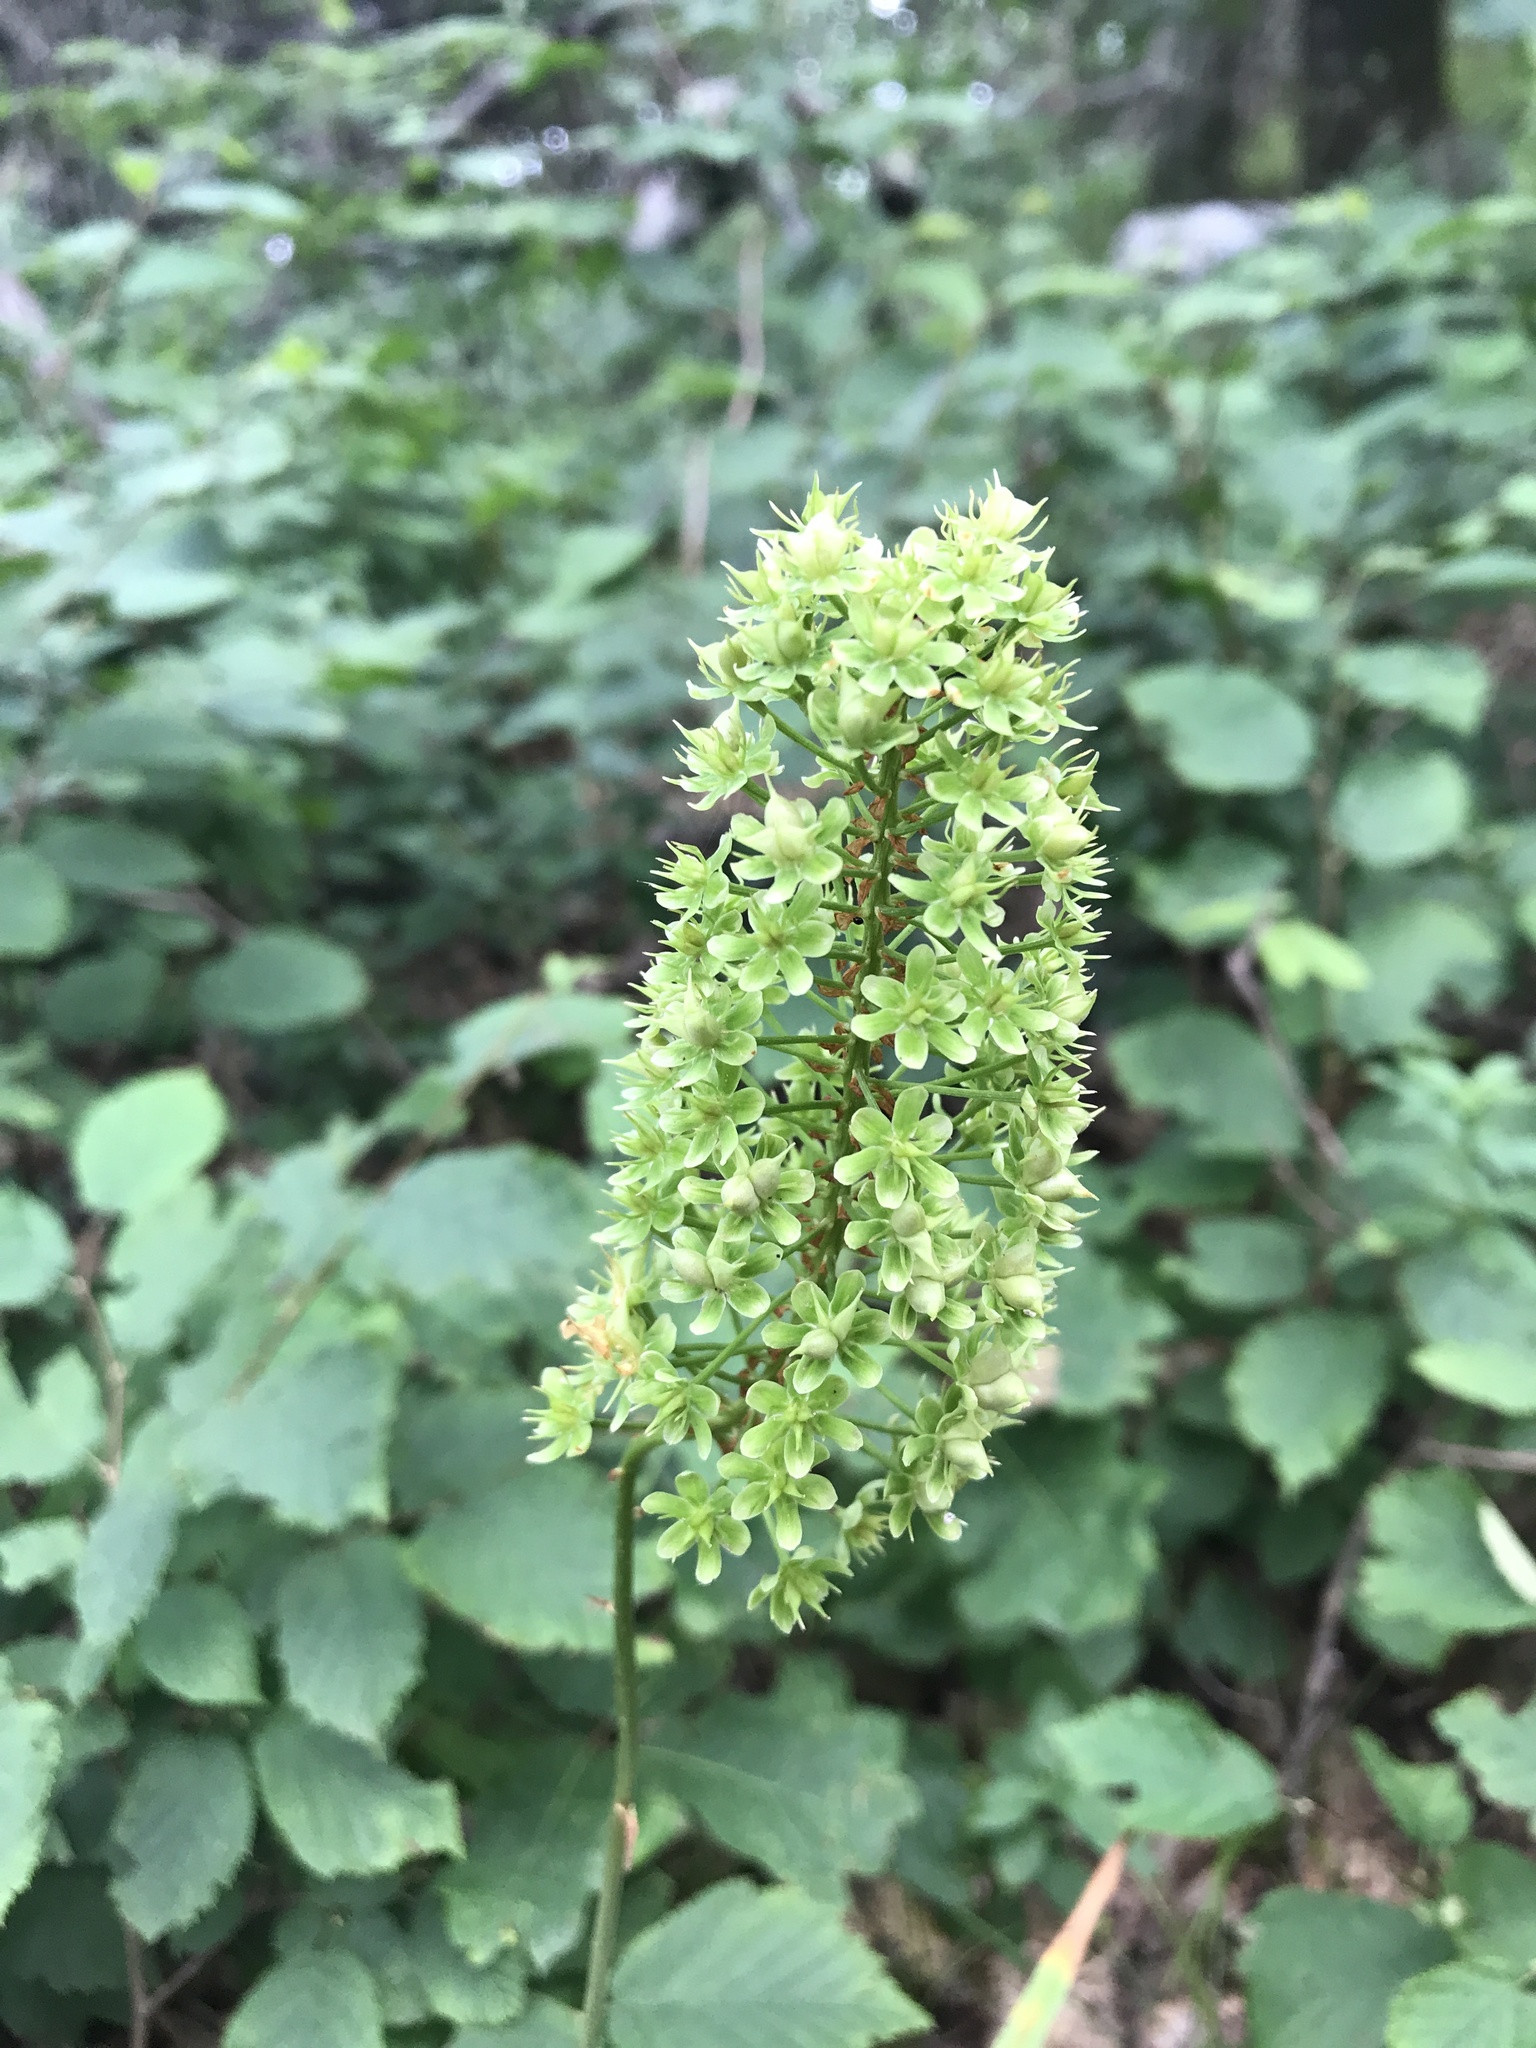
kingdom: Plantae
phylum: Tracheophyta
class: Liliopsida
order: Liliales
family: Melanthiaceae
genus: Amianthium
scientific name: Amianthium muscitoxicum
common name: Fly-poison
